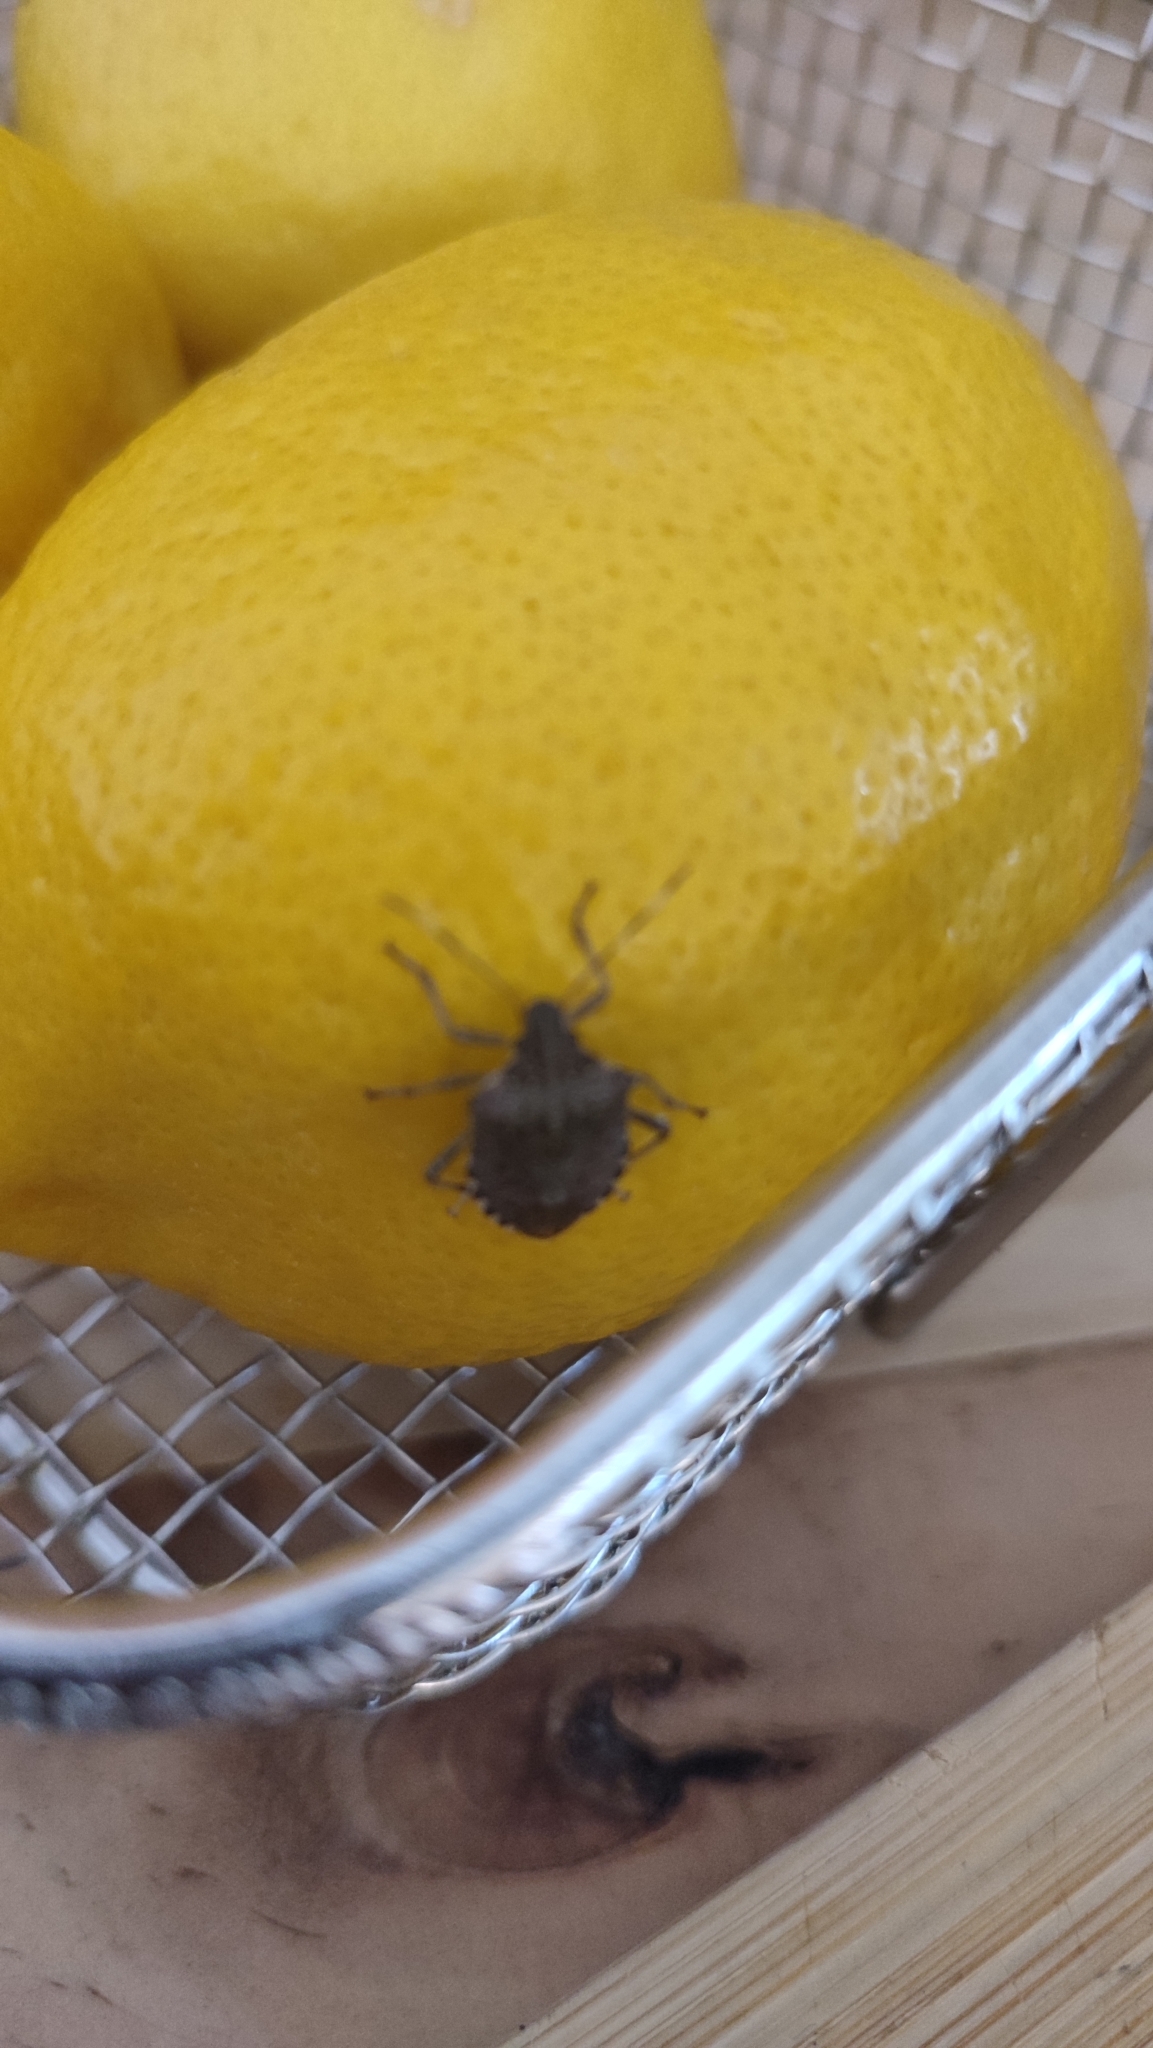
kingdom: Animalia
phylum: Arthropoda
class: Insecta
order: Hemiptera
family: Pentatomidae
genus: Halyomorpha
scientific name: Halyomorpha halys
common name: Brown marmorated stink bug
